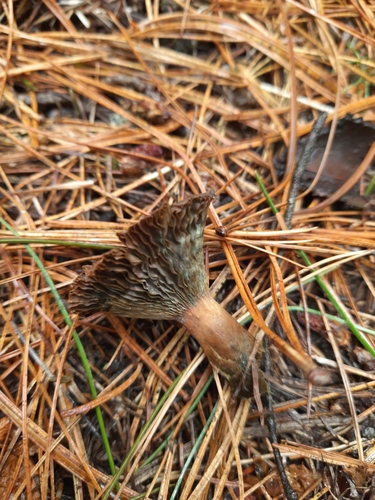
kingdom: Fungi
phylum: Basidiomycota
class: Agaricomycetes
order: Russulales
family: Russulaceae
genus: Lactarius
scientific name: Lactarius deterrimus
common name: False saffron milkcap
